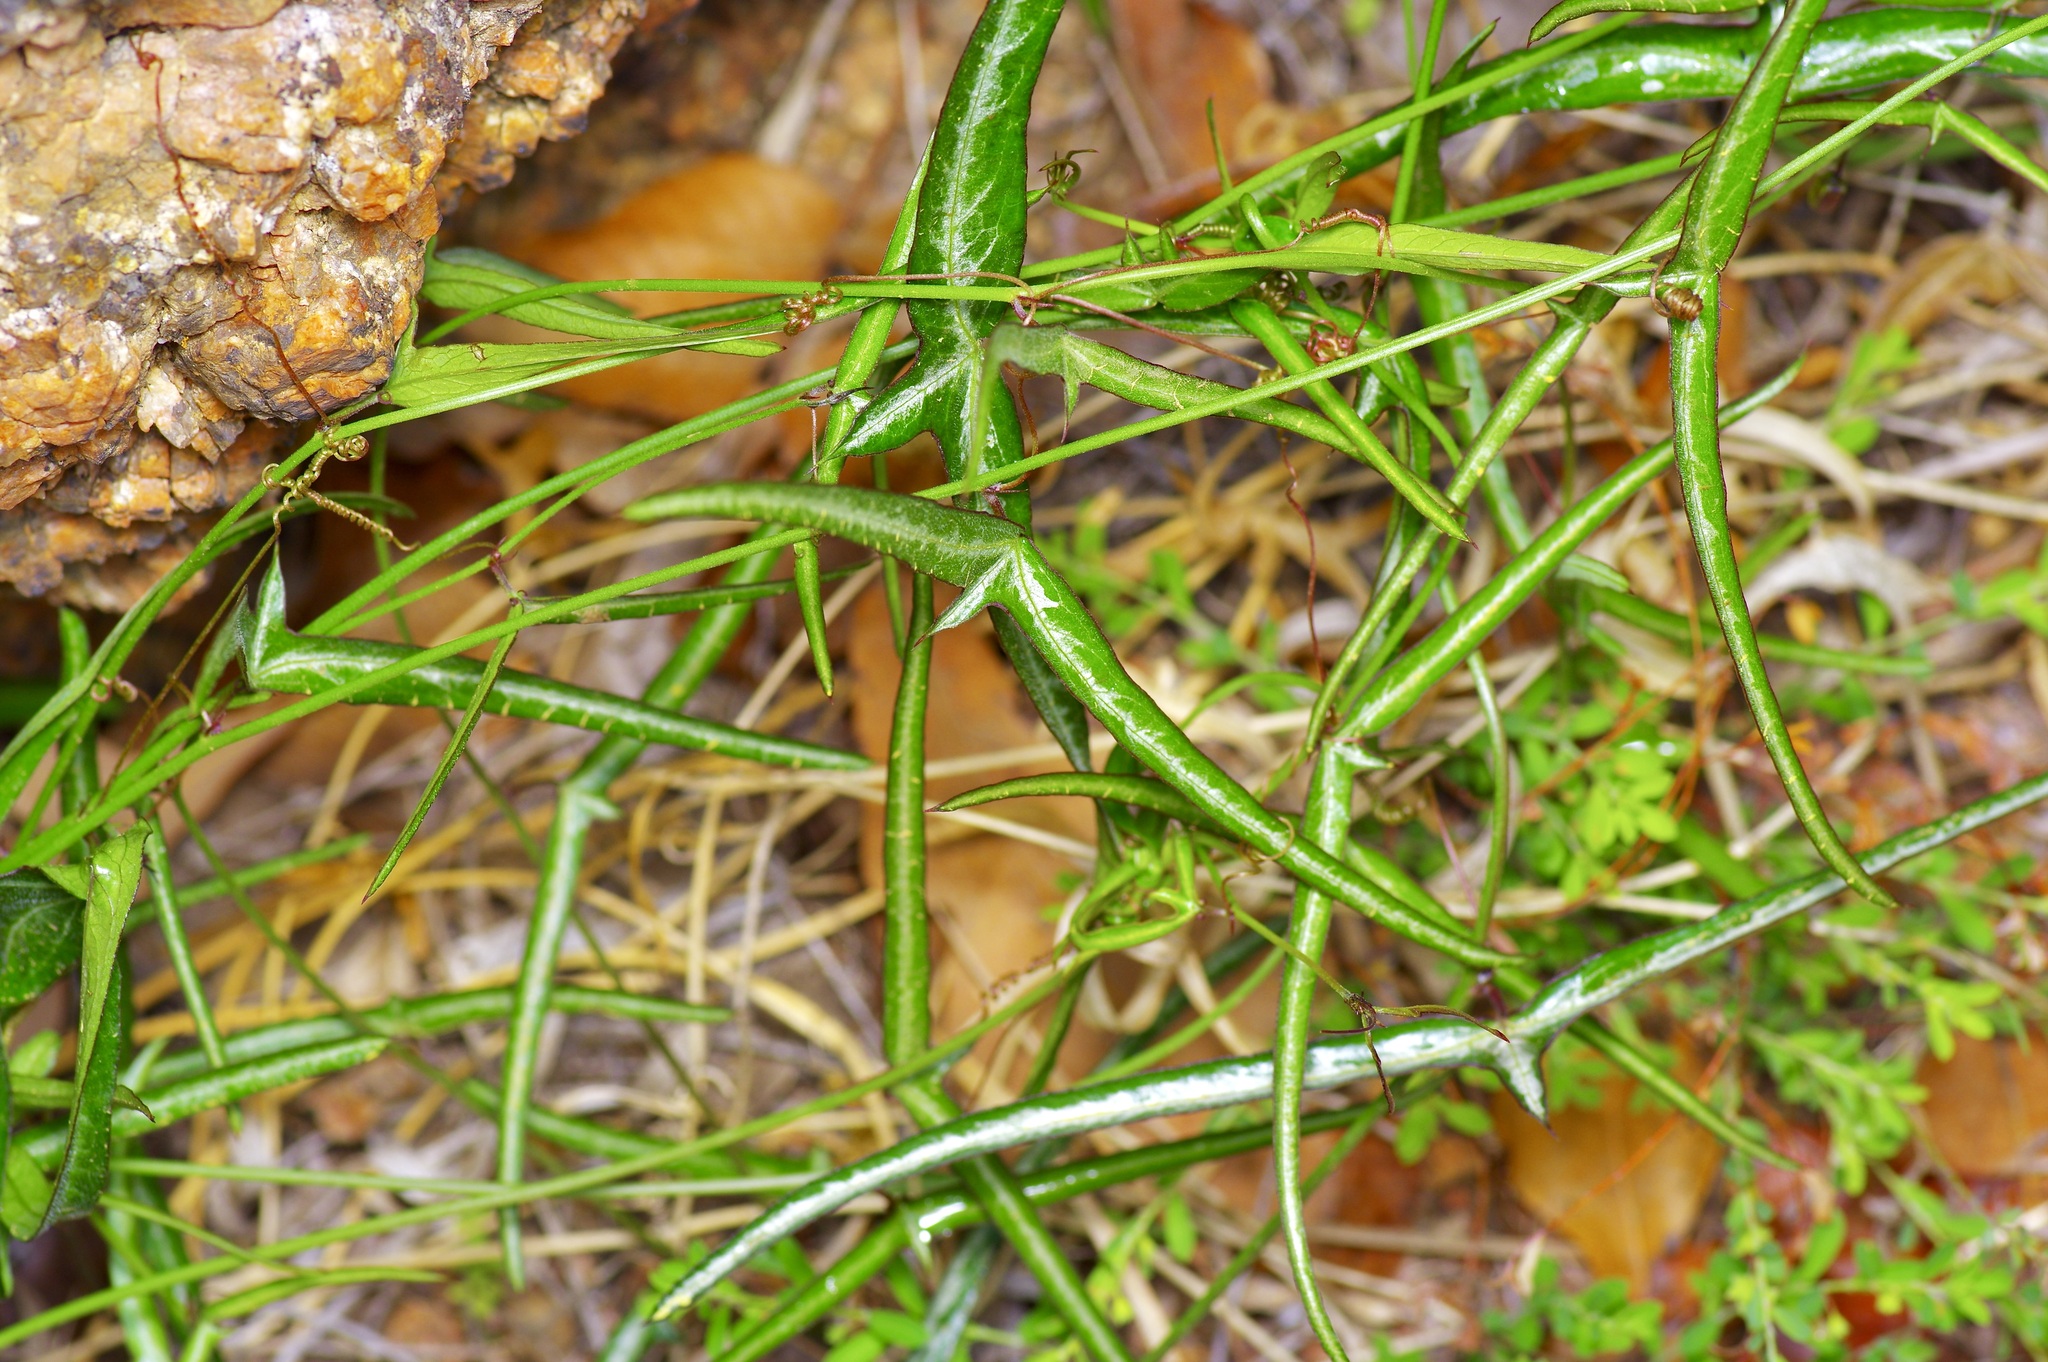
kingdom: Plantae
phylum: Tracheophyta
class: Magnoliopsida
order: Malpighiales
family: Passifloraceae
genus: Passiflora
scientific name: Passiflora tenuiloba
